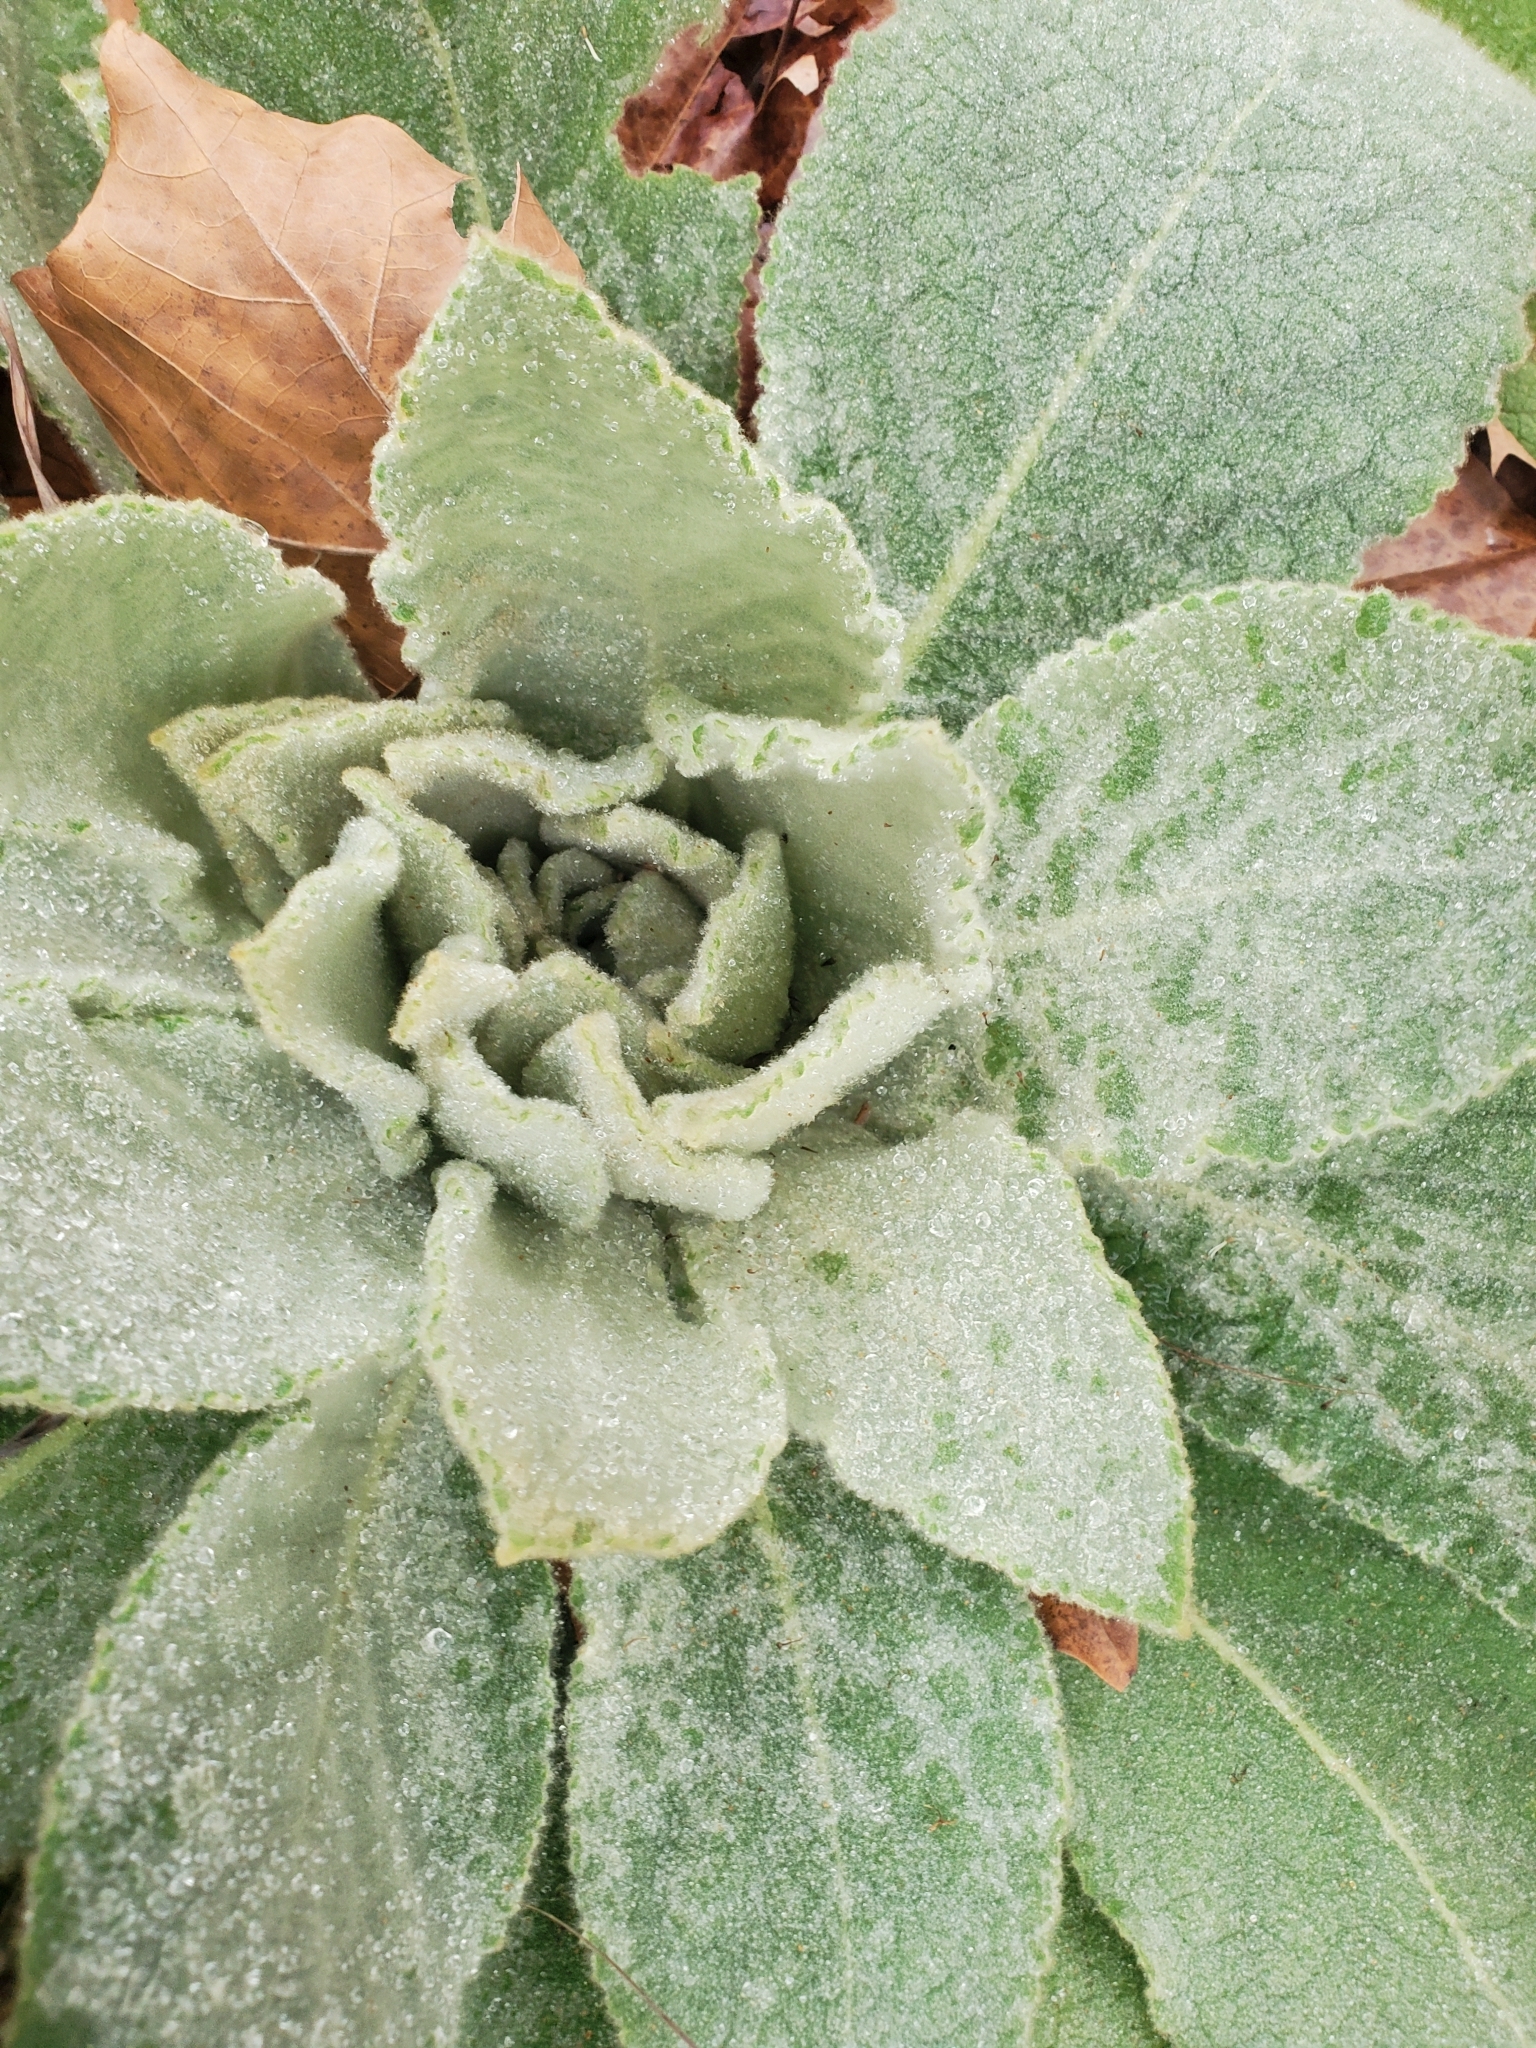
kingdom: Plantae
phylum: Tracheophyta
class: Magnoliopsida
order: Lamiales
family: Scrophulariaceae
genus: Verbascum
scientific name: Verbascum thapsus
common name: Common mullein
